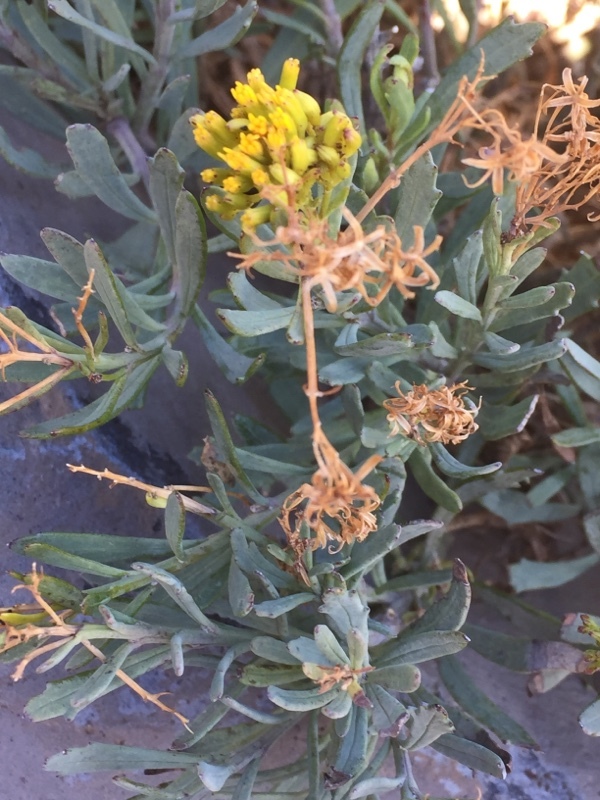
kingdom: Plantae
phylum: Tracheophyta
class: Magnoliopsida
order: Asterales
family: Asteraceae
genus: Bethencourtia
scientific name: Bethencourtia palmensis
